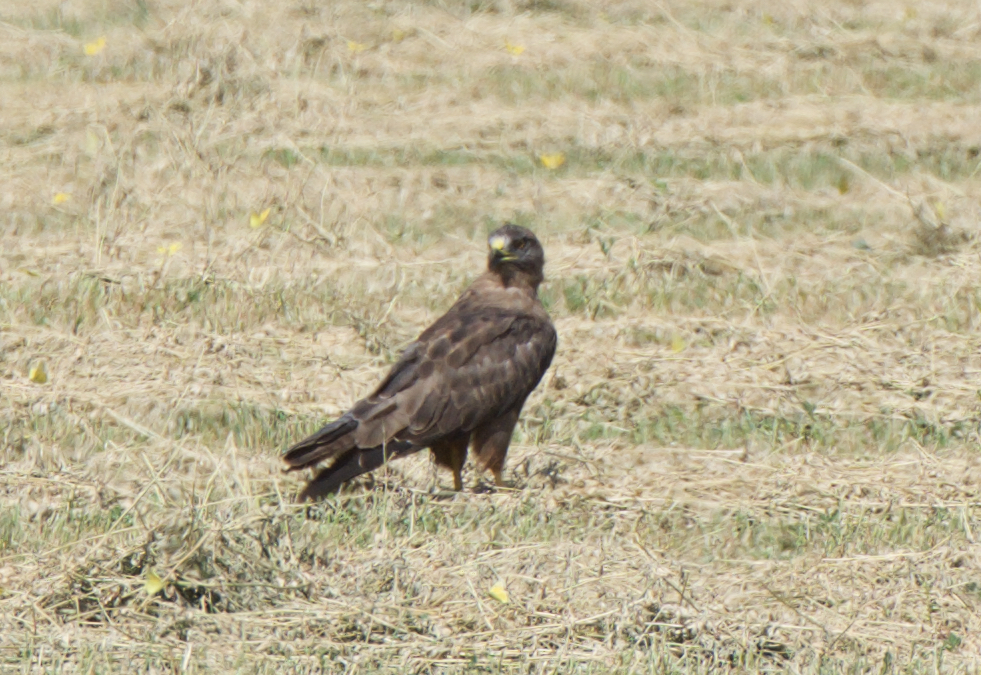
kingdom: Animalia
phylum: Chordata
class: Aves
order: Accipitriformes
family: Accipitridae
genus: Buteo
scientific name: Buteo swainsoni
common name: Swainson's hawk
